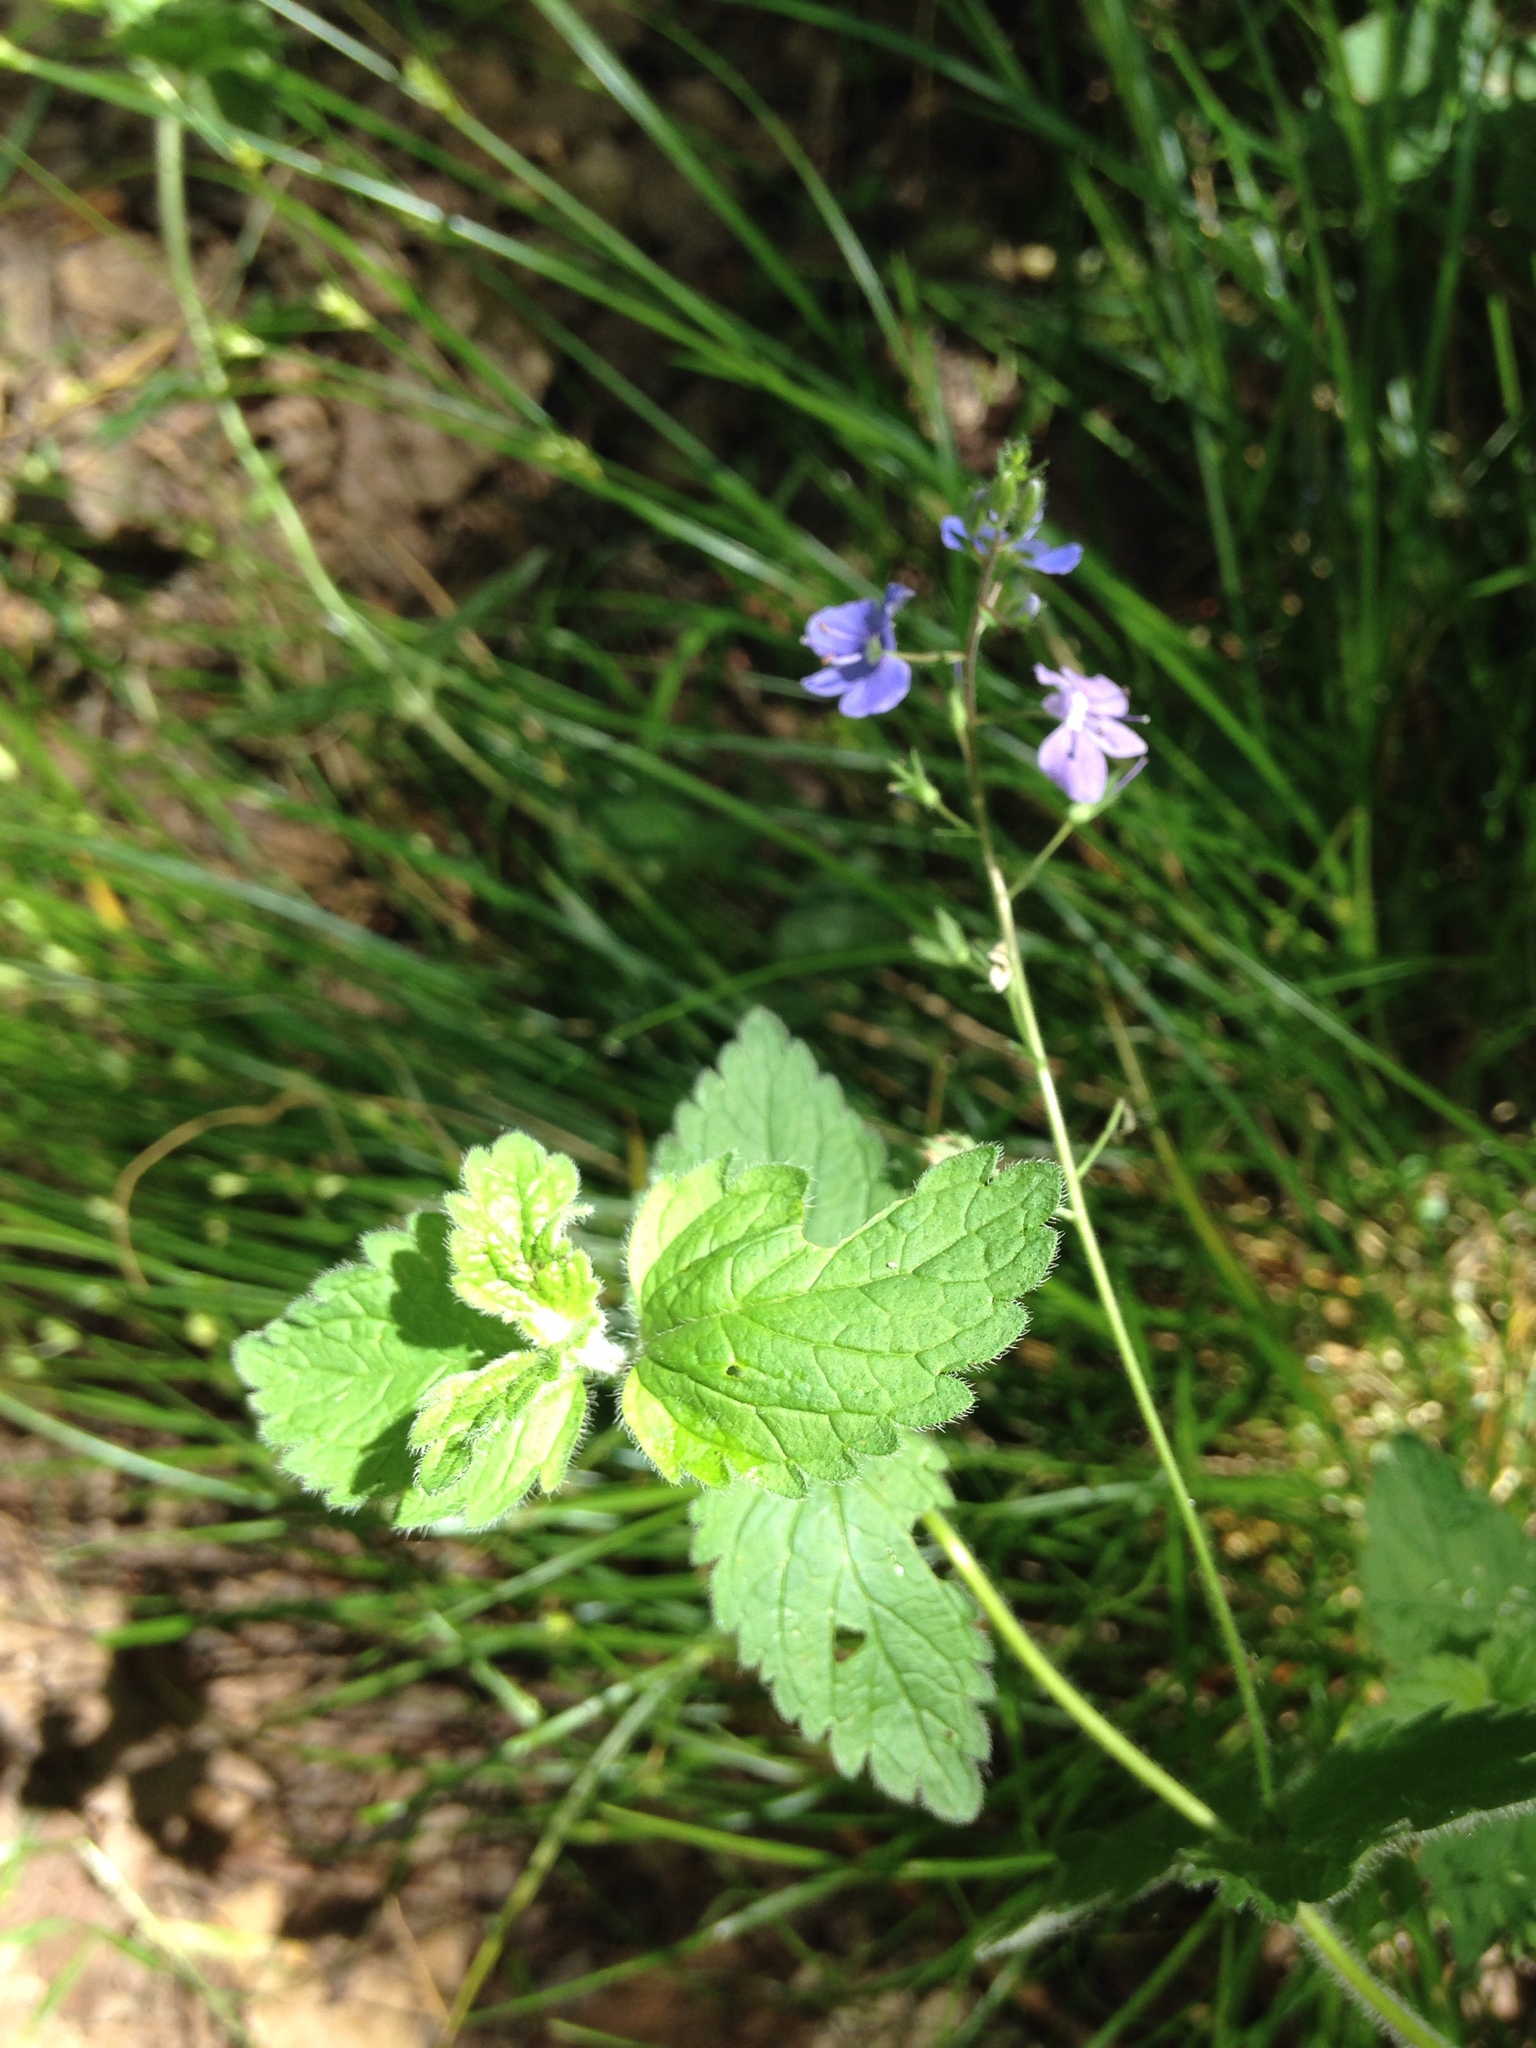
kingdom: Plantae
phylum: Tracheophyta
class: Magnoliopsida
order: Lamiales
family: Plantaginaceae
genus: Veronica
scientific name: Veronica chamaedrys
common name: Germander speedwell
